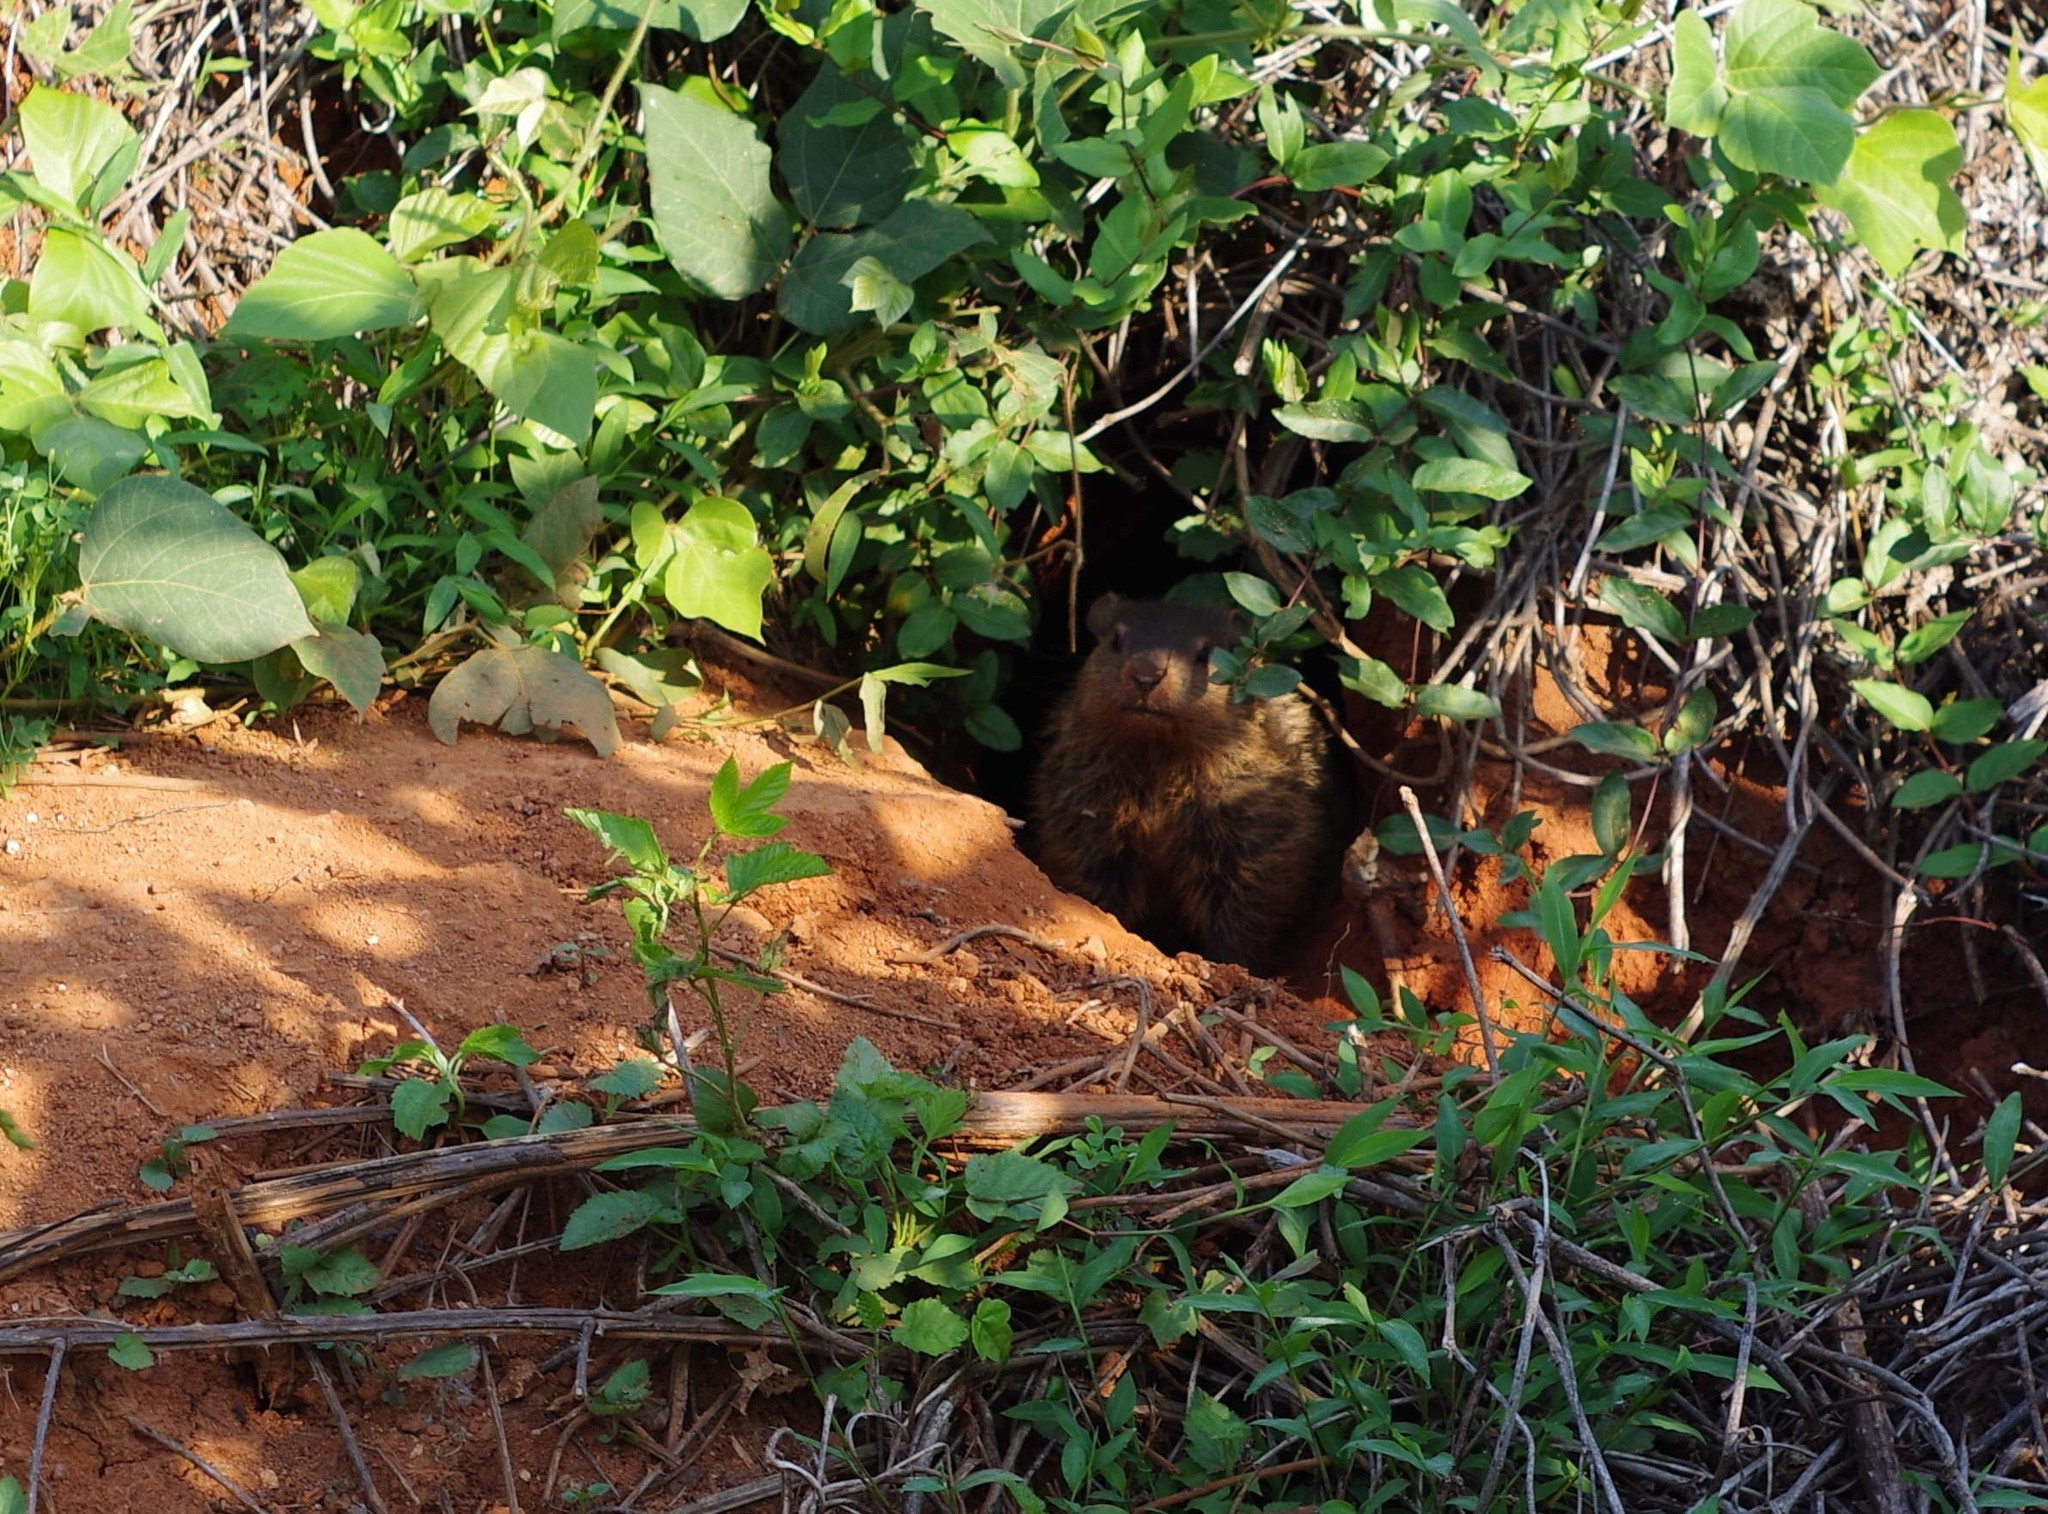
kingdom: Animalia
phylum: Chordata
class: Mammalia
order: Rodentia
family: Sciuridae
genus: Marmota
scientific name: Marmota monax
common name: Groundhog
